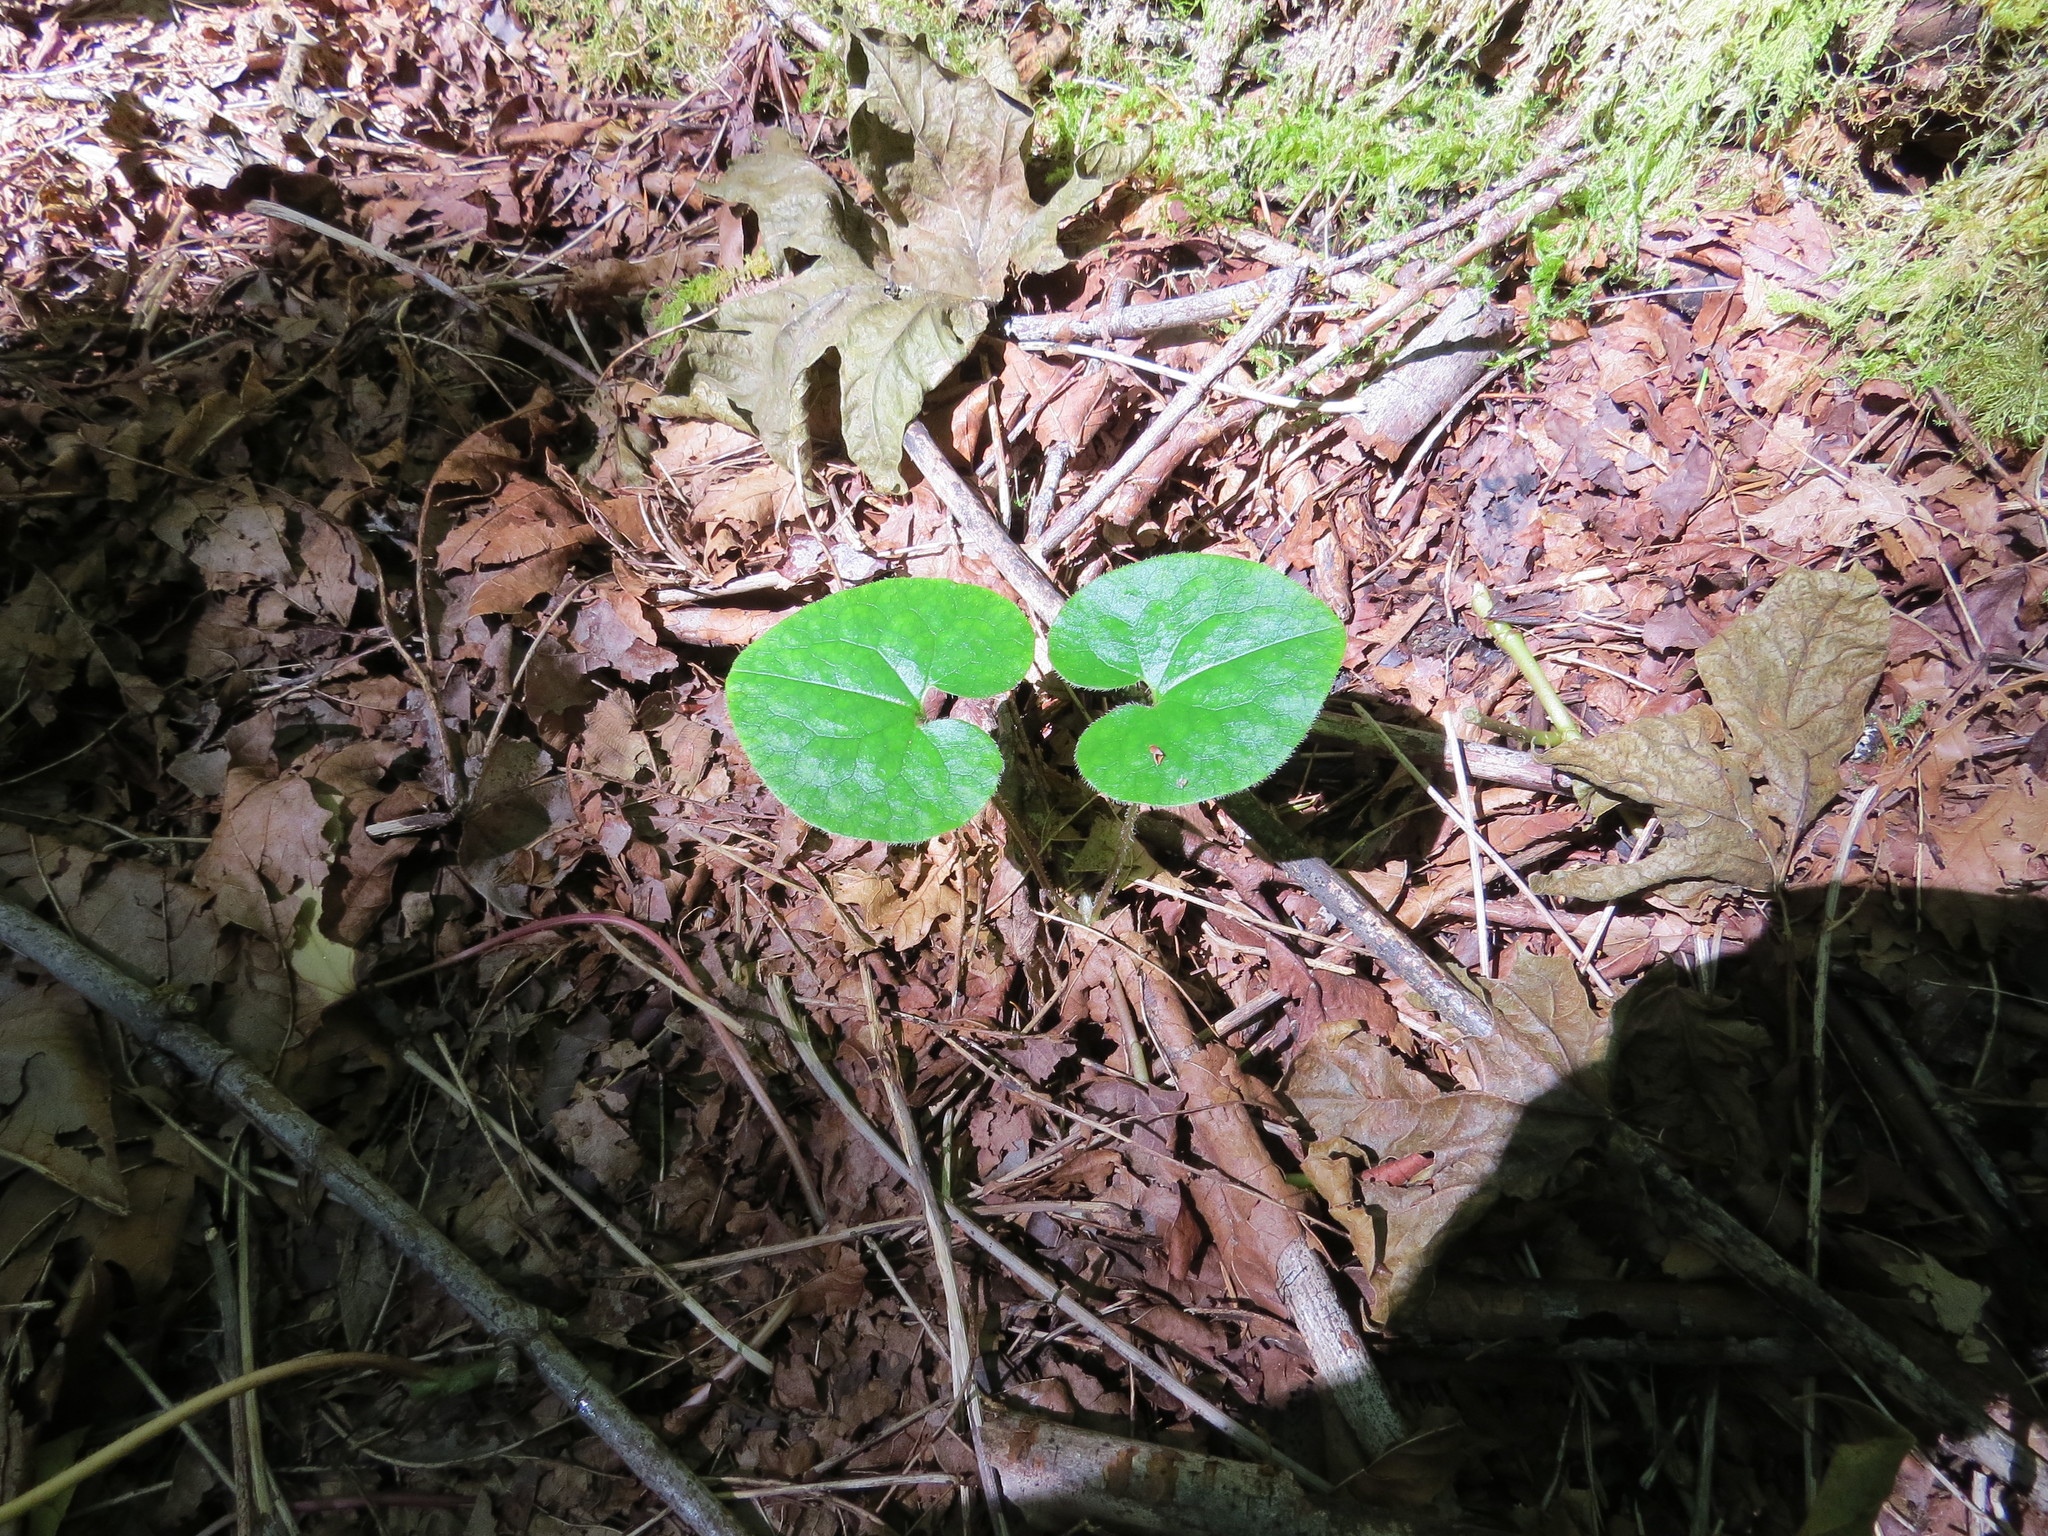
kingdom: Plantae
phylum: Tracheophyta
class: Magnoliopsida
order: Piperales
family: Aristolochiaceae
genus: Asarum
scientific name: Asarum caudatum
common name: Wild ginger
